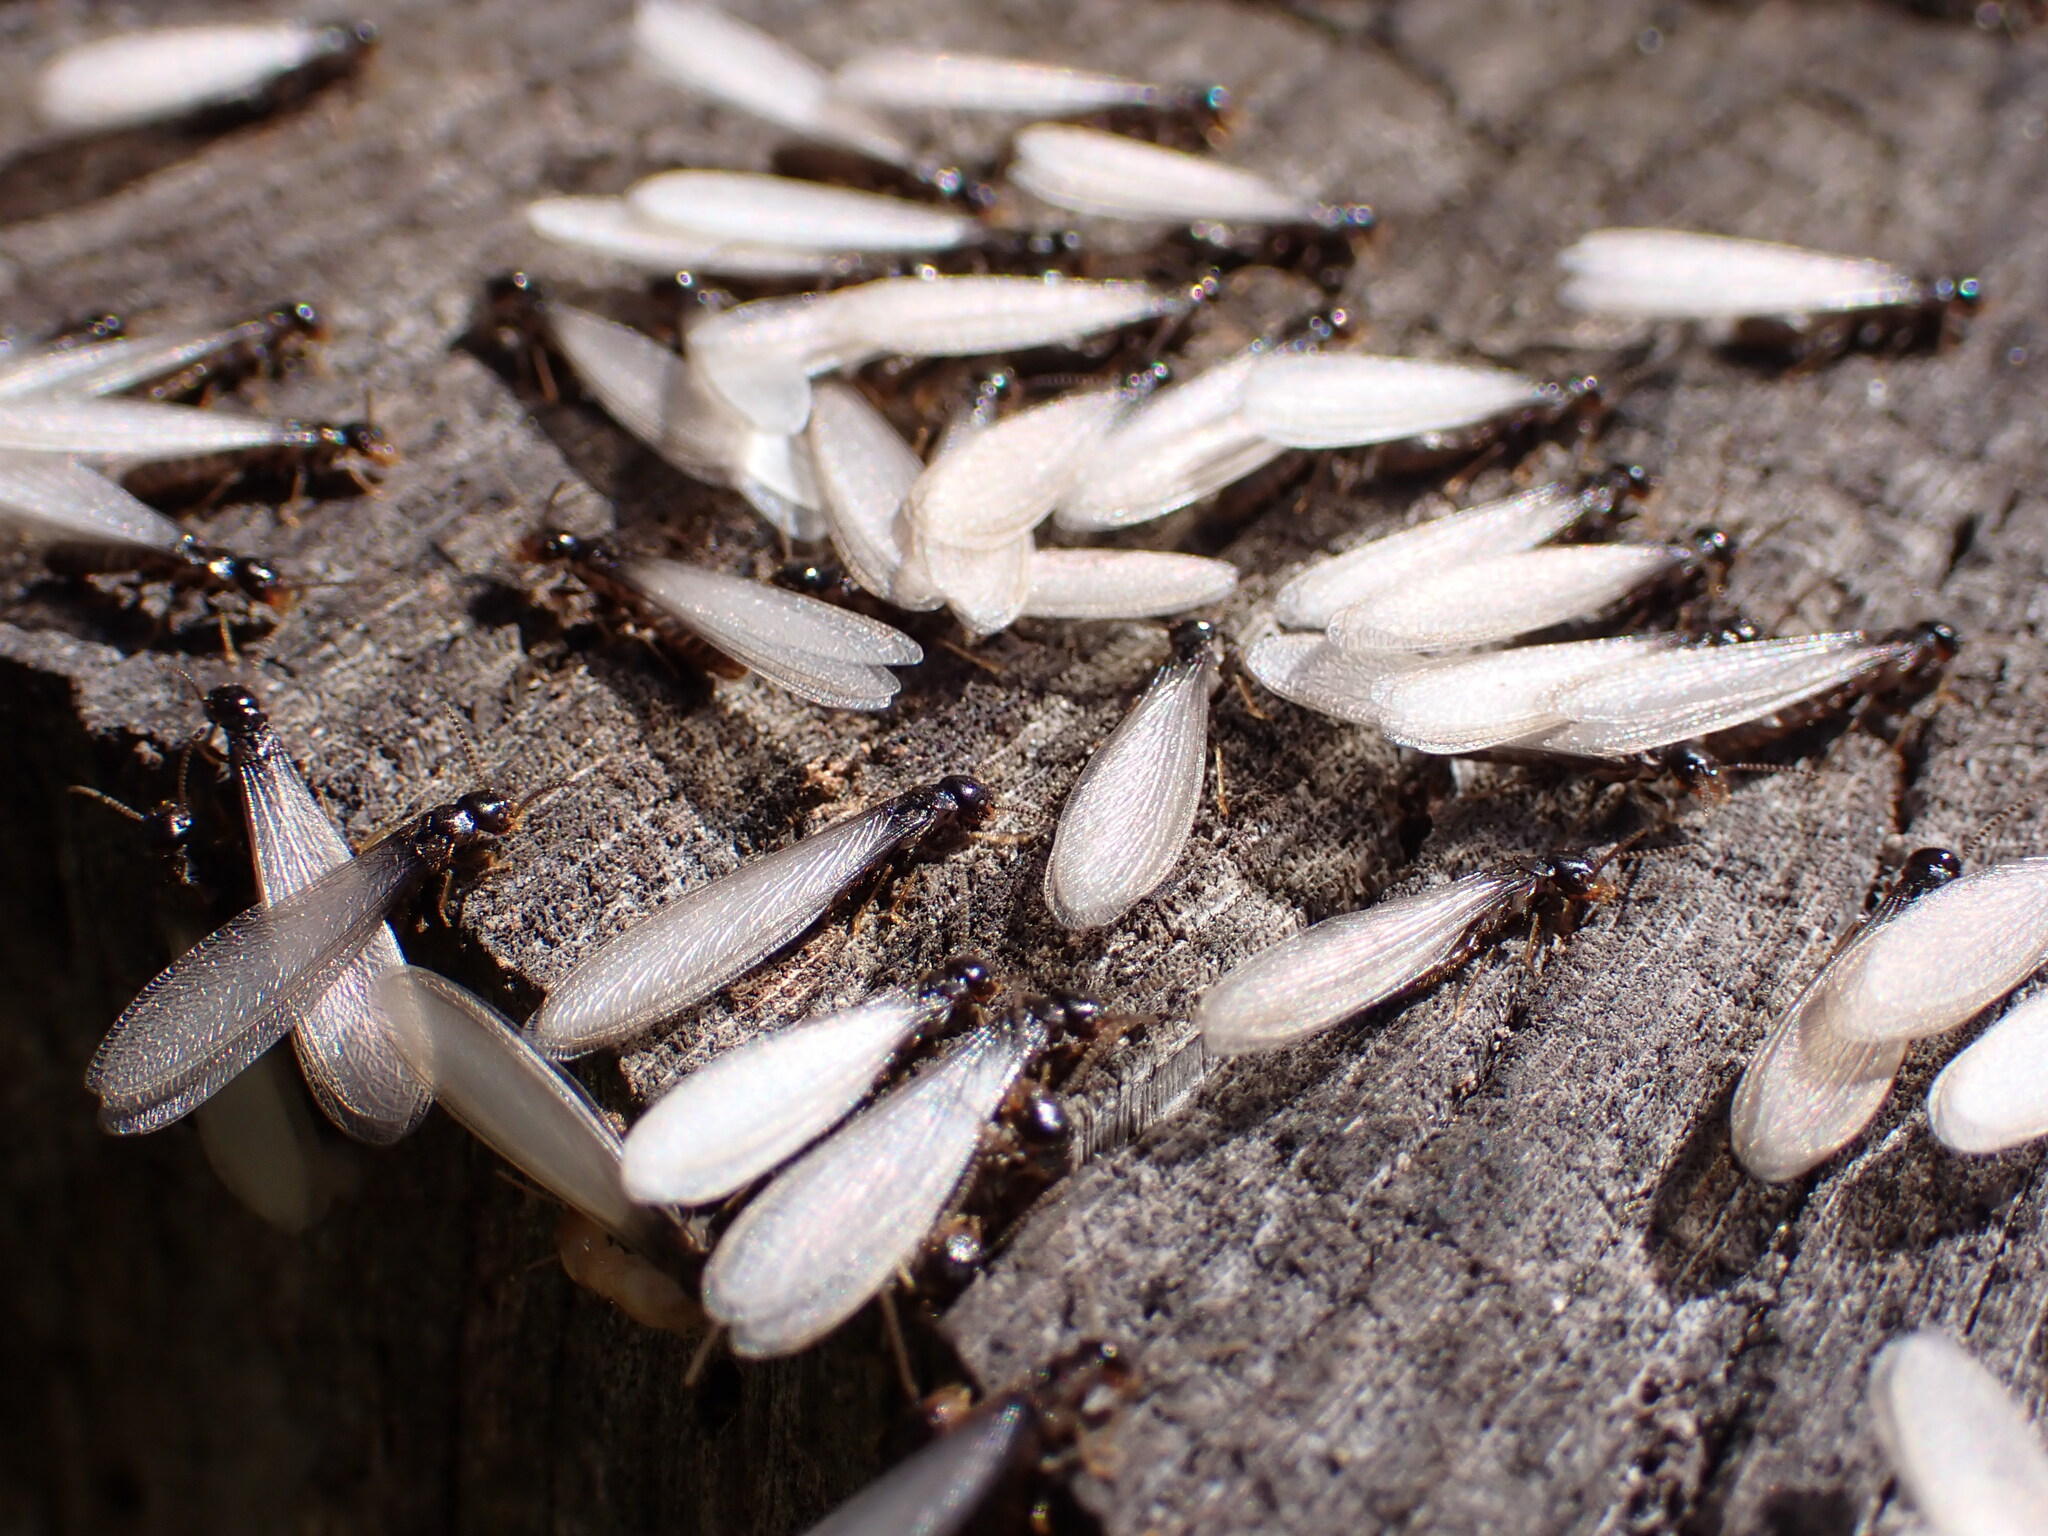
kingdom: Animalia
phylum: Arthropoda
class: Insecta
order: Blattodea
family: Rhinotermitidae
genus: Reticulitermes
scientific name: Reticulitermes flavipes
